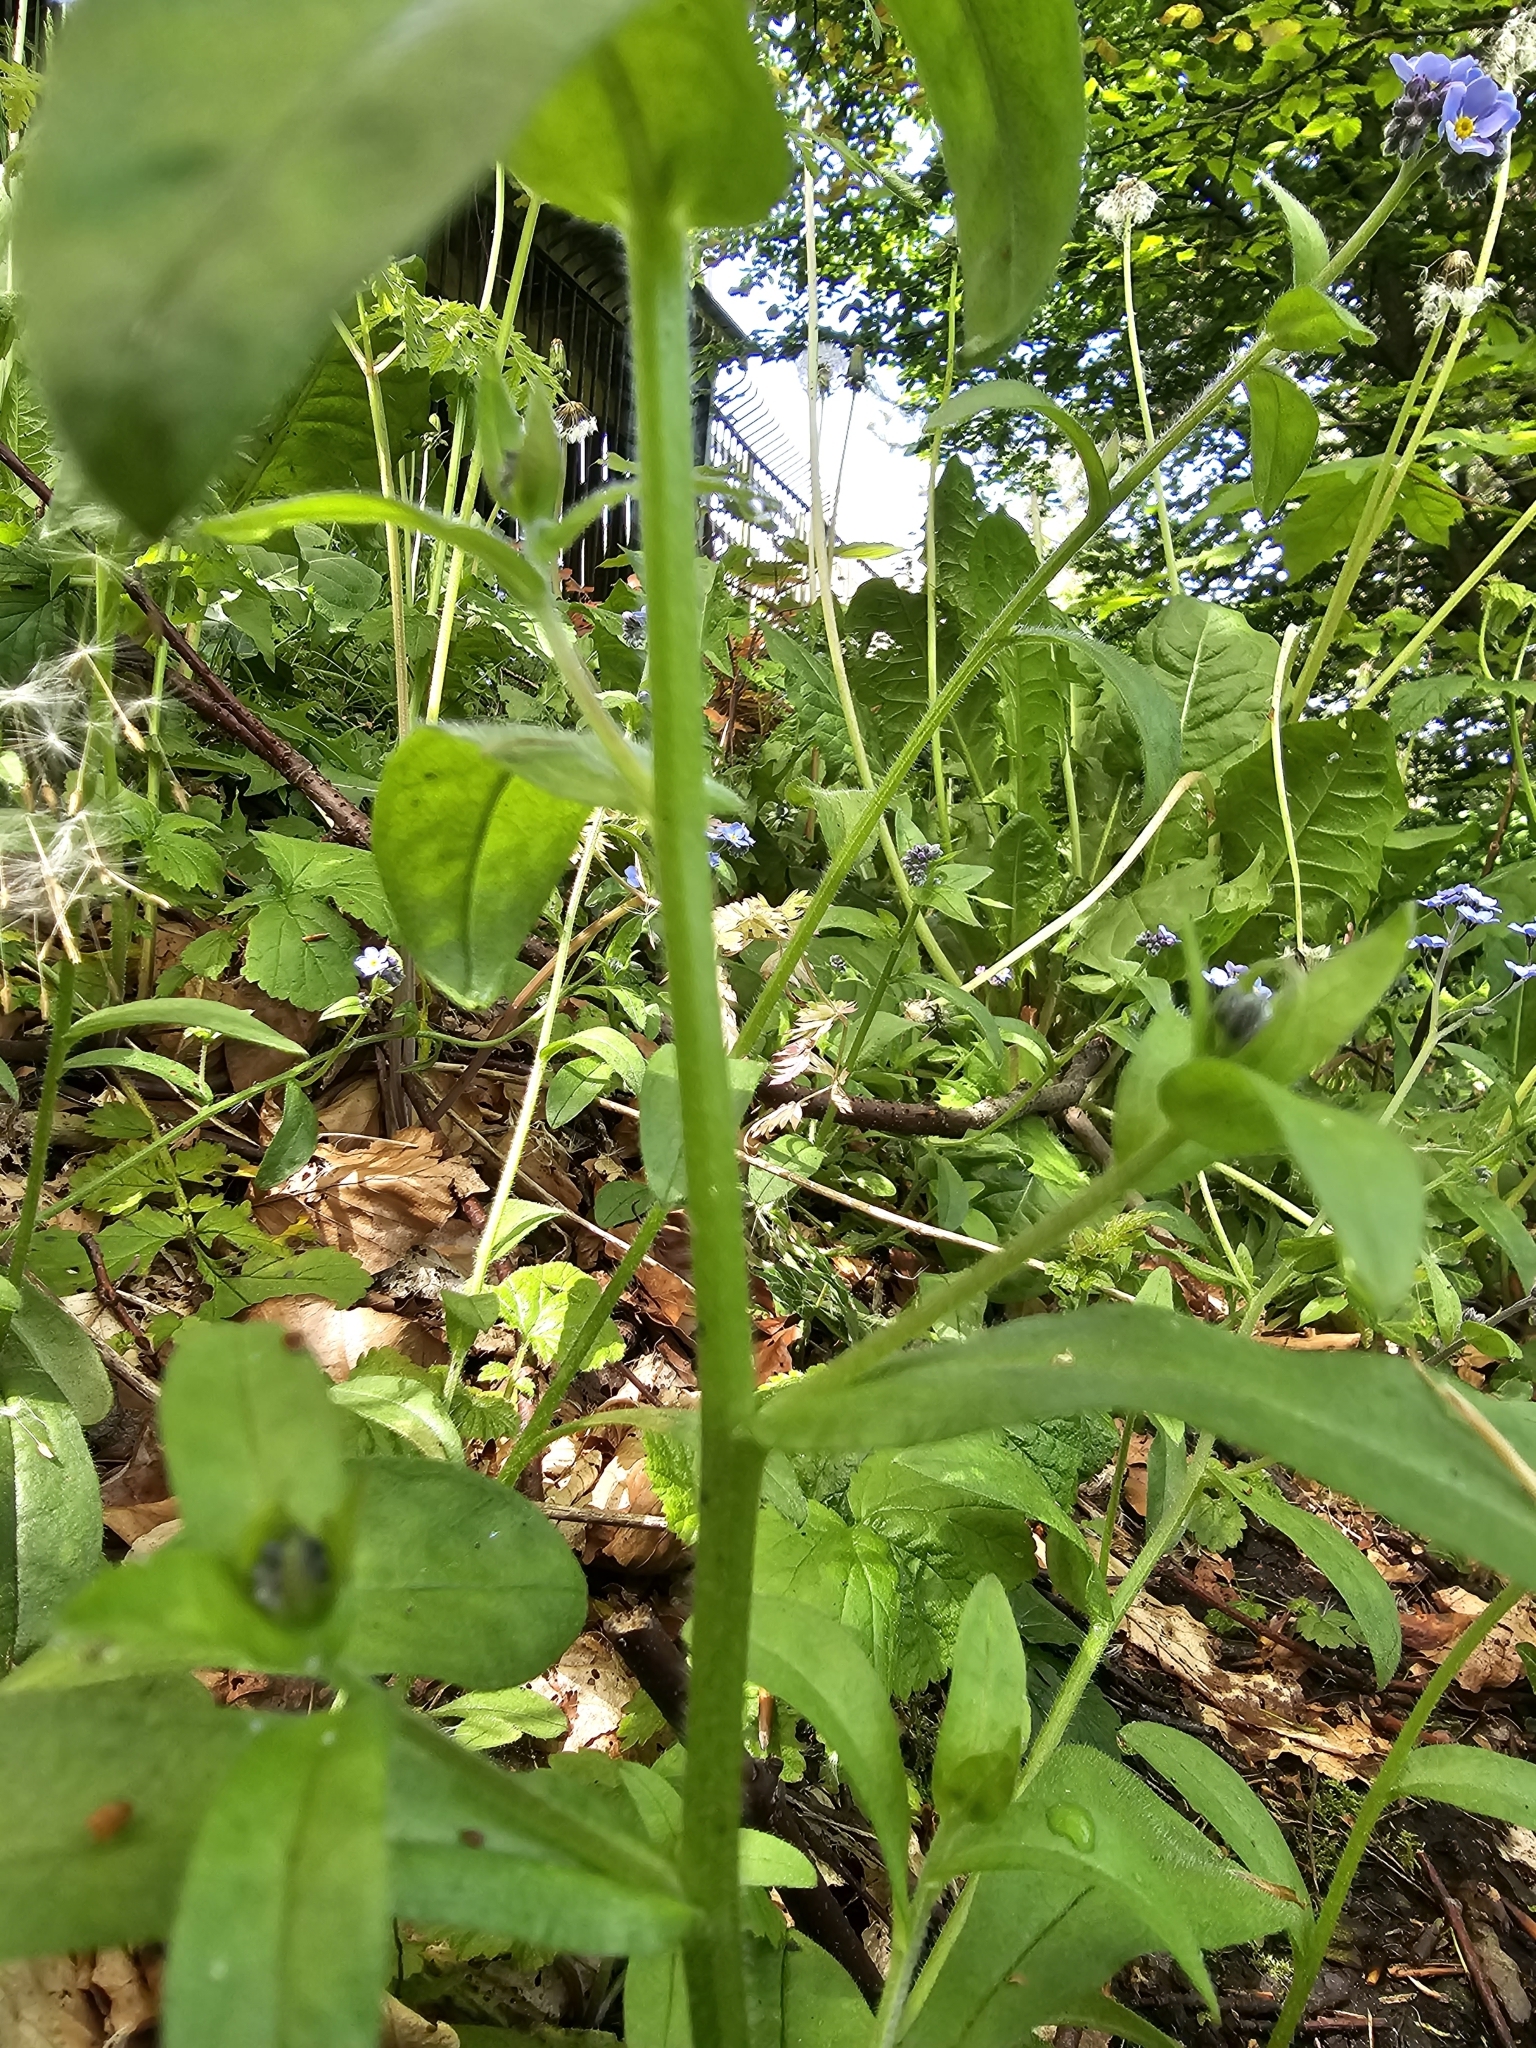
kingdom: Plantae
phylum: Tracheophyta
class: Magnoliopsida
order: Boraginales
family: Boraginaceae
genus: Myosotis
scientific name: Myosotis sylvatica
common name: Wood forget-me-not
